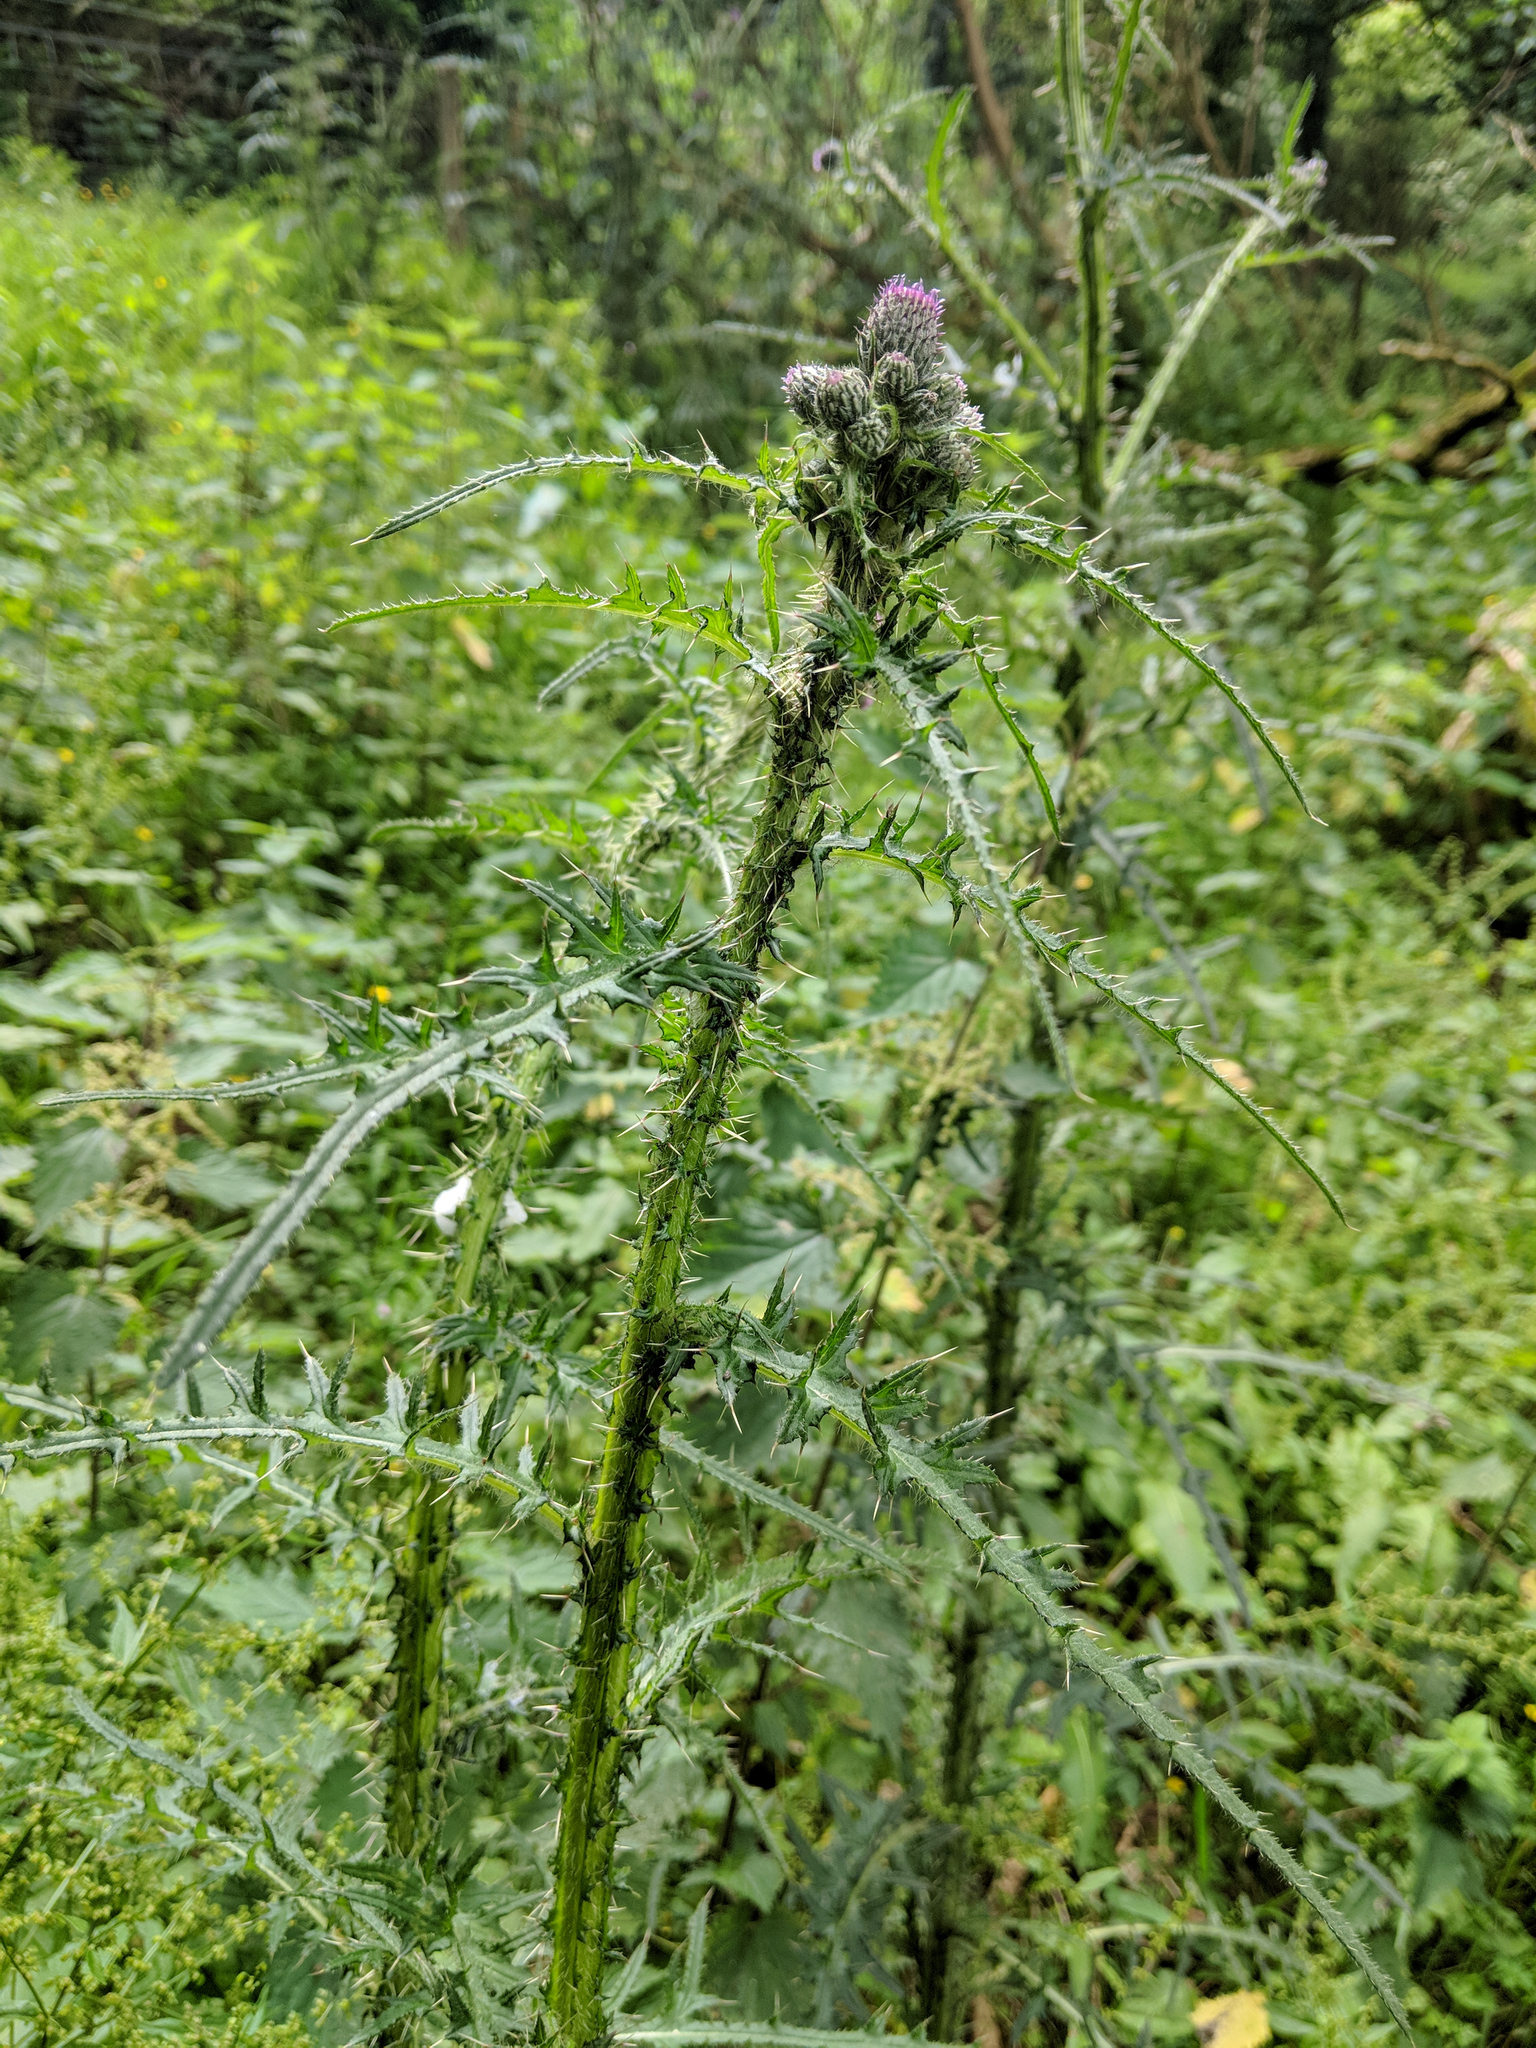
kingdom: Plantae
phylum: Tracheophyta
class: Magnoliopsida
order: Asterales
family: Asteraceae
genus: Cirsium
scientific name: Cirsium palustre
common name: Marsh thistle
